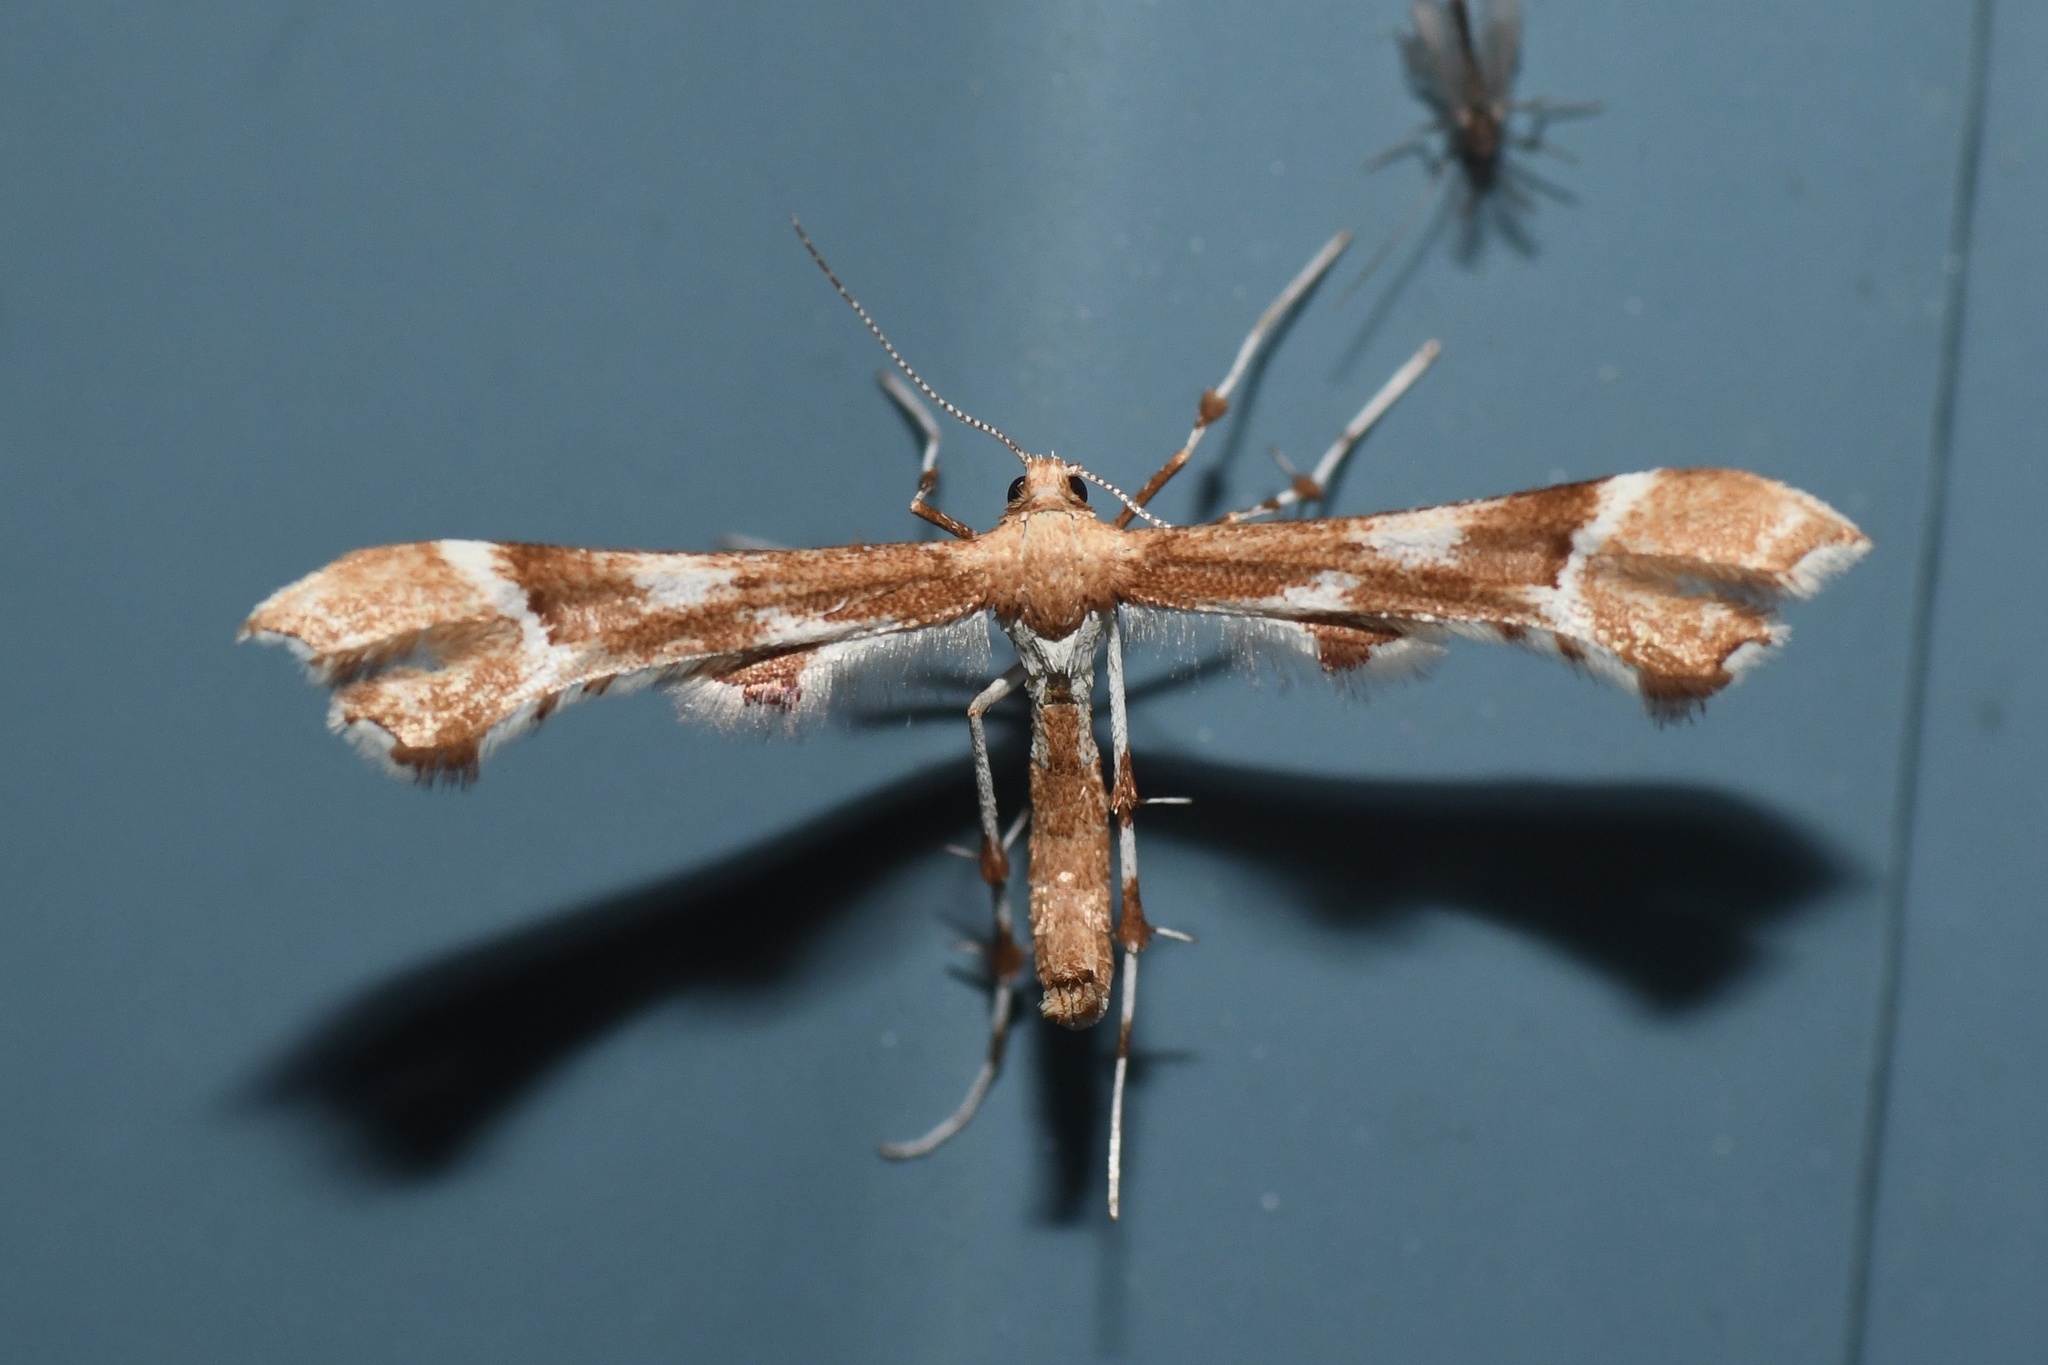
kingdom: Animalia
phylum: Arthropoda
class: Insecta
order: Lepidoptera
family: Pterophoridae
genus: Cnaemidophorus
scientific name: Cnaemidophorus rhododactyla
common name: Rose plume
